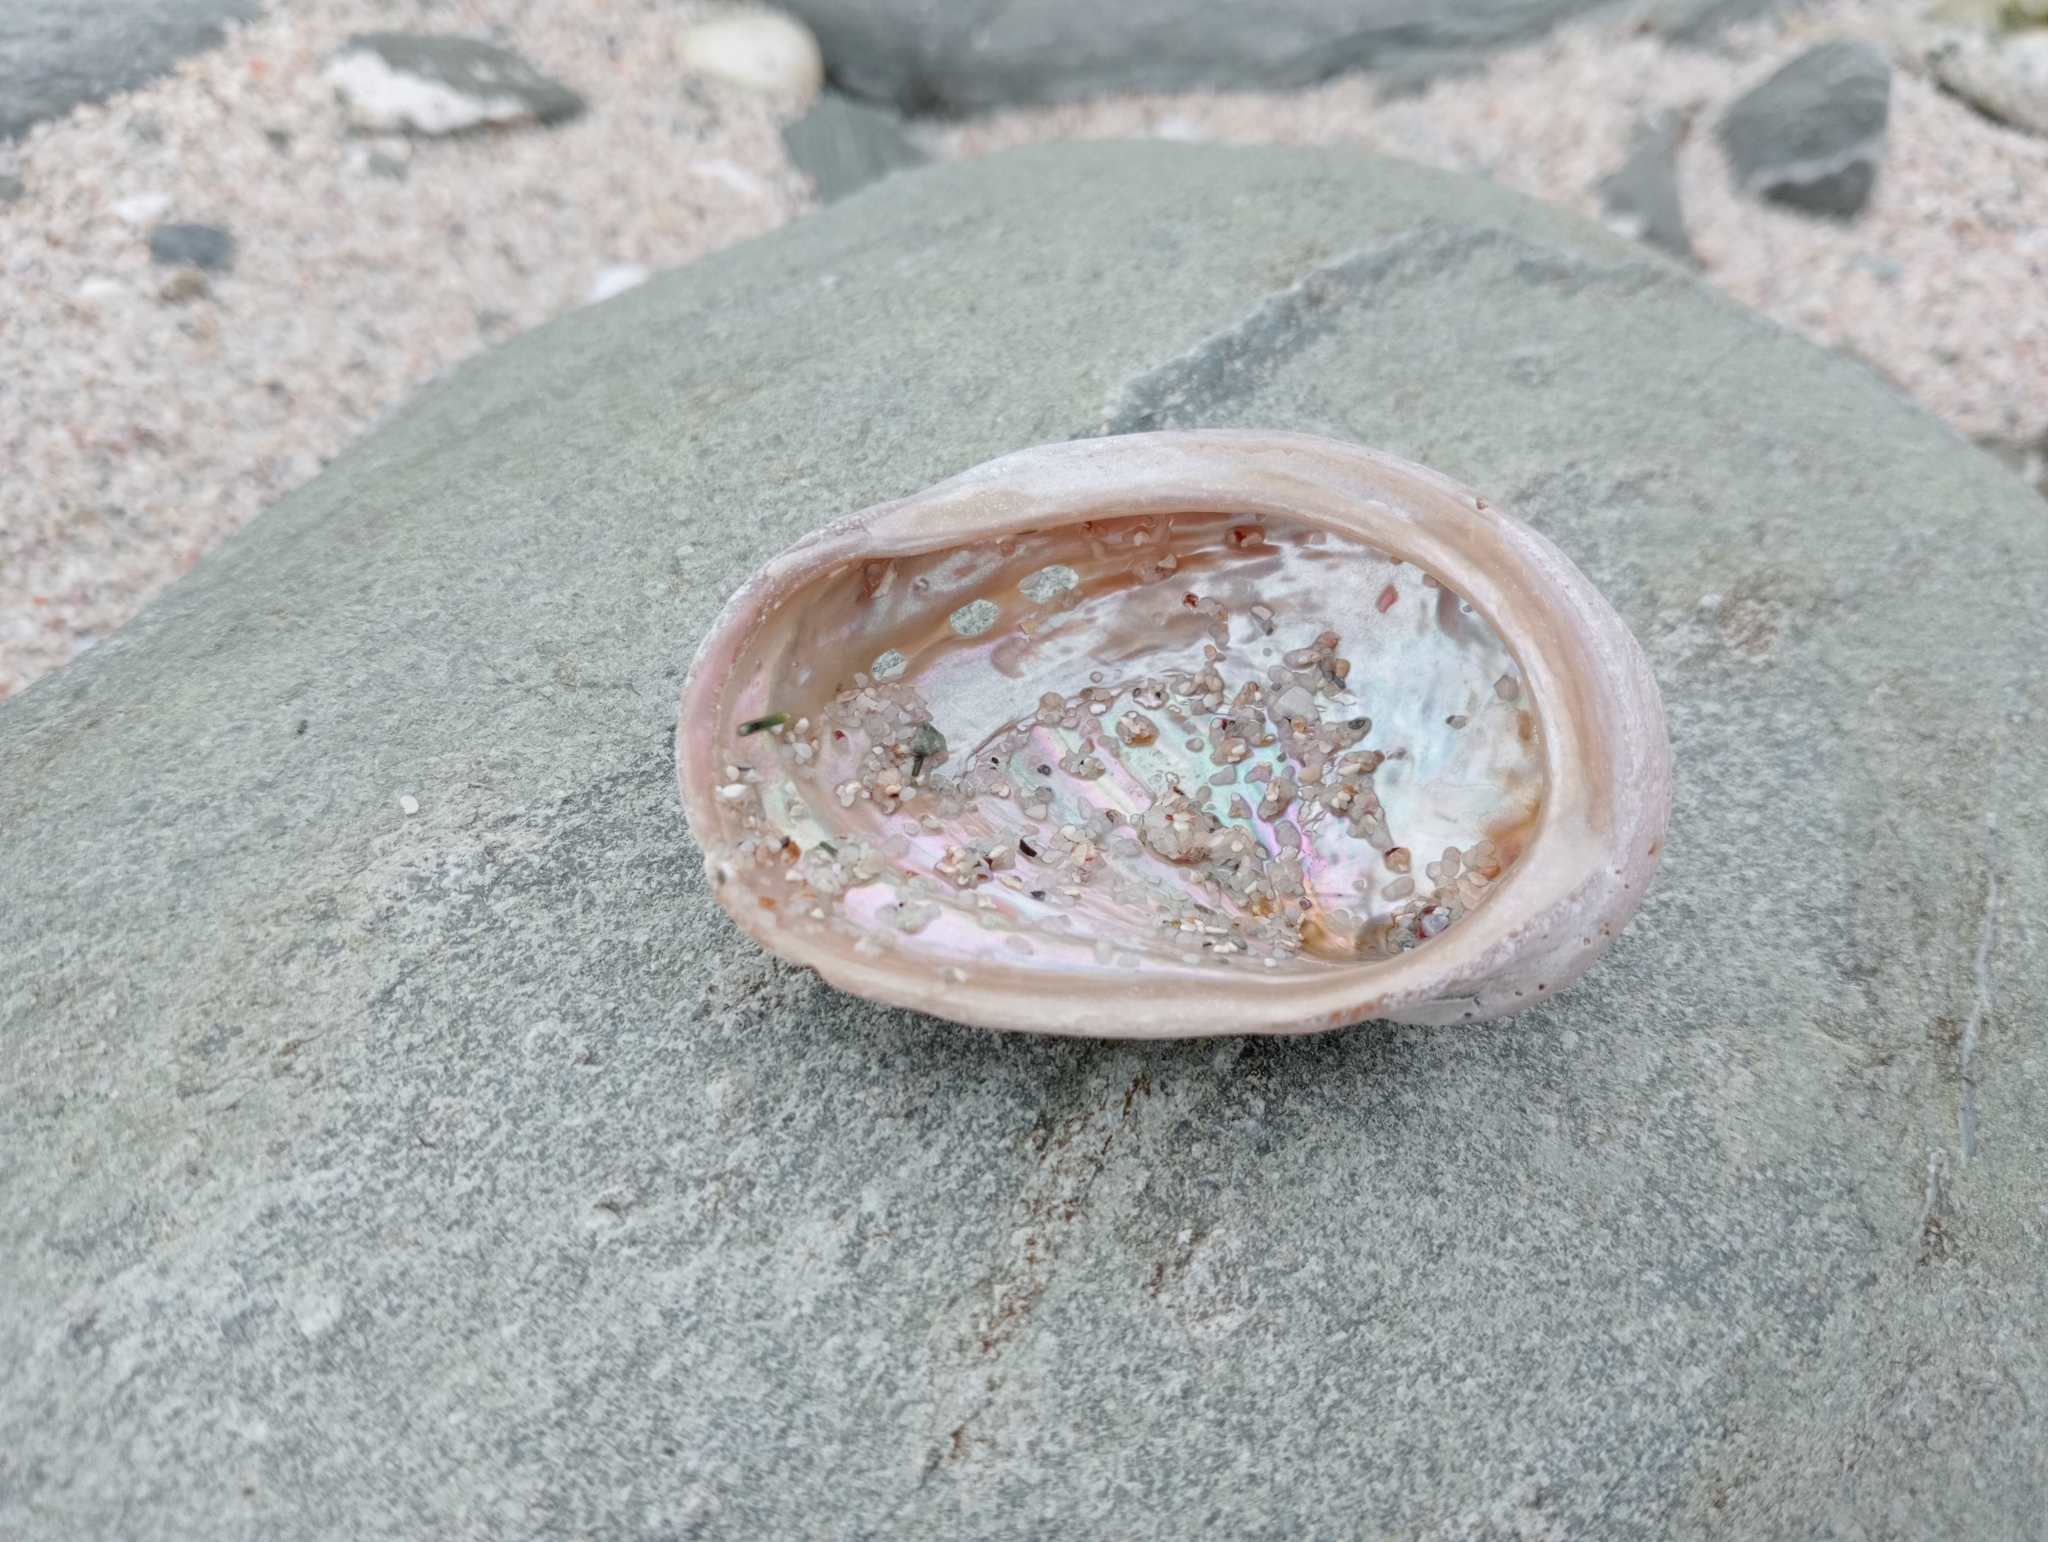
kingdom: Animalia
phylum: Mollusca
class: Gastropoda
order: Lepetellida
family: Haliotidae
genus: Haliotis
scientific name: Haliotis australis
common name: Silver abalone
